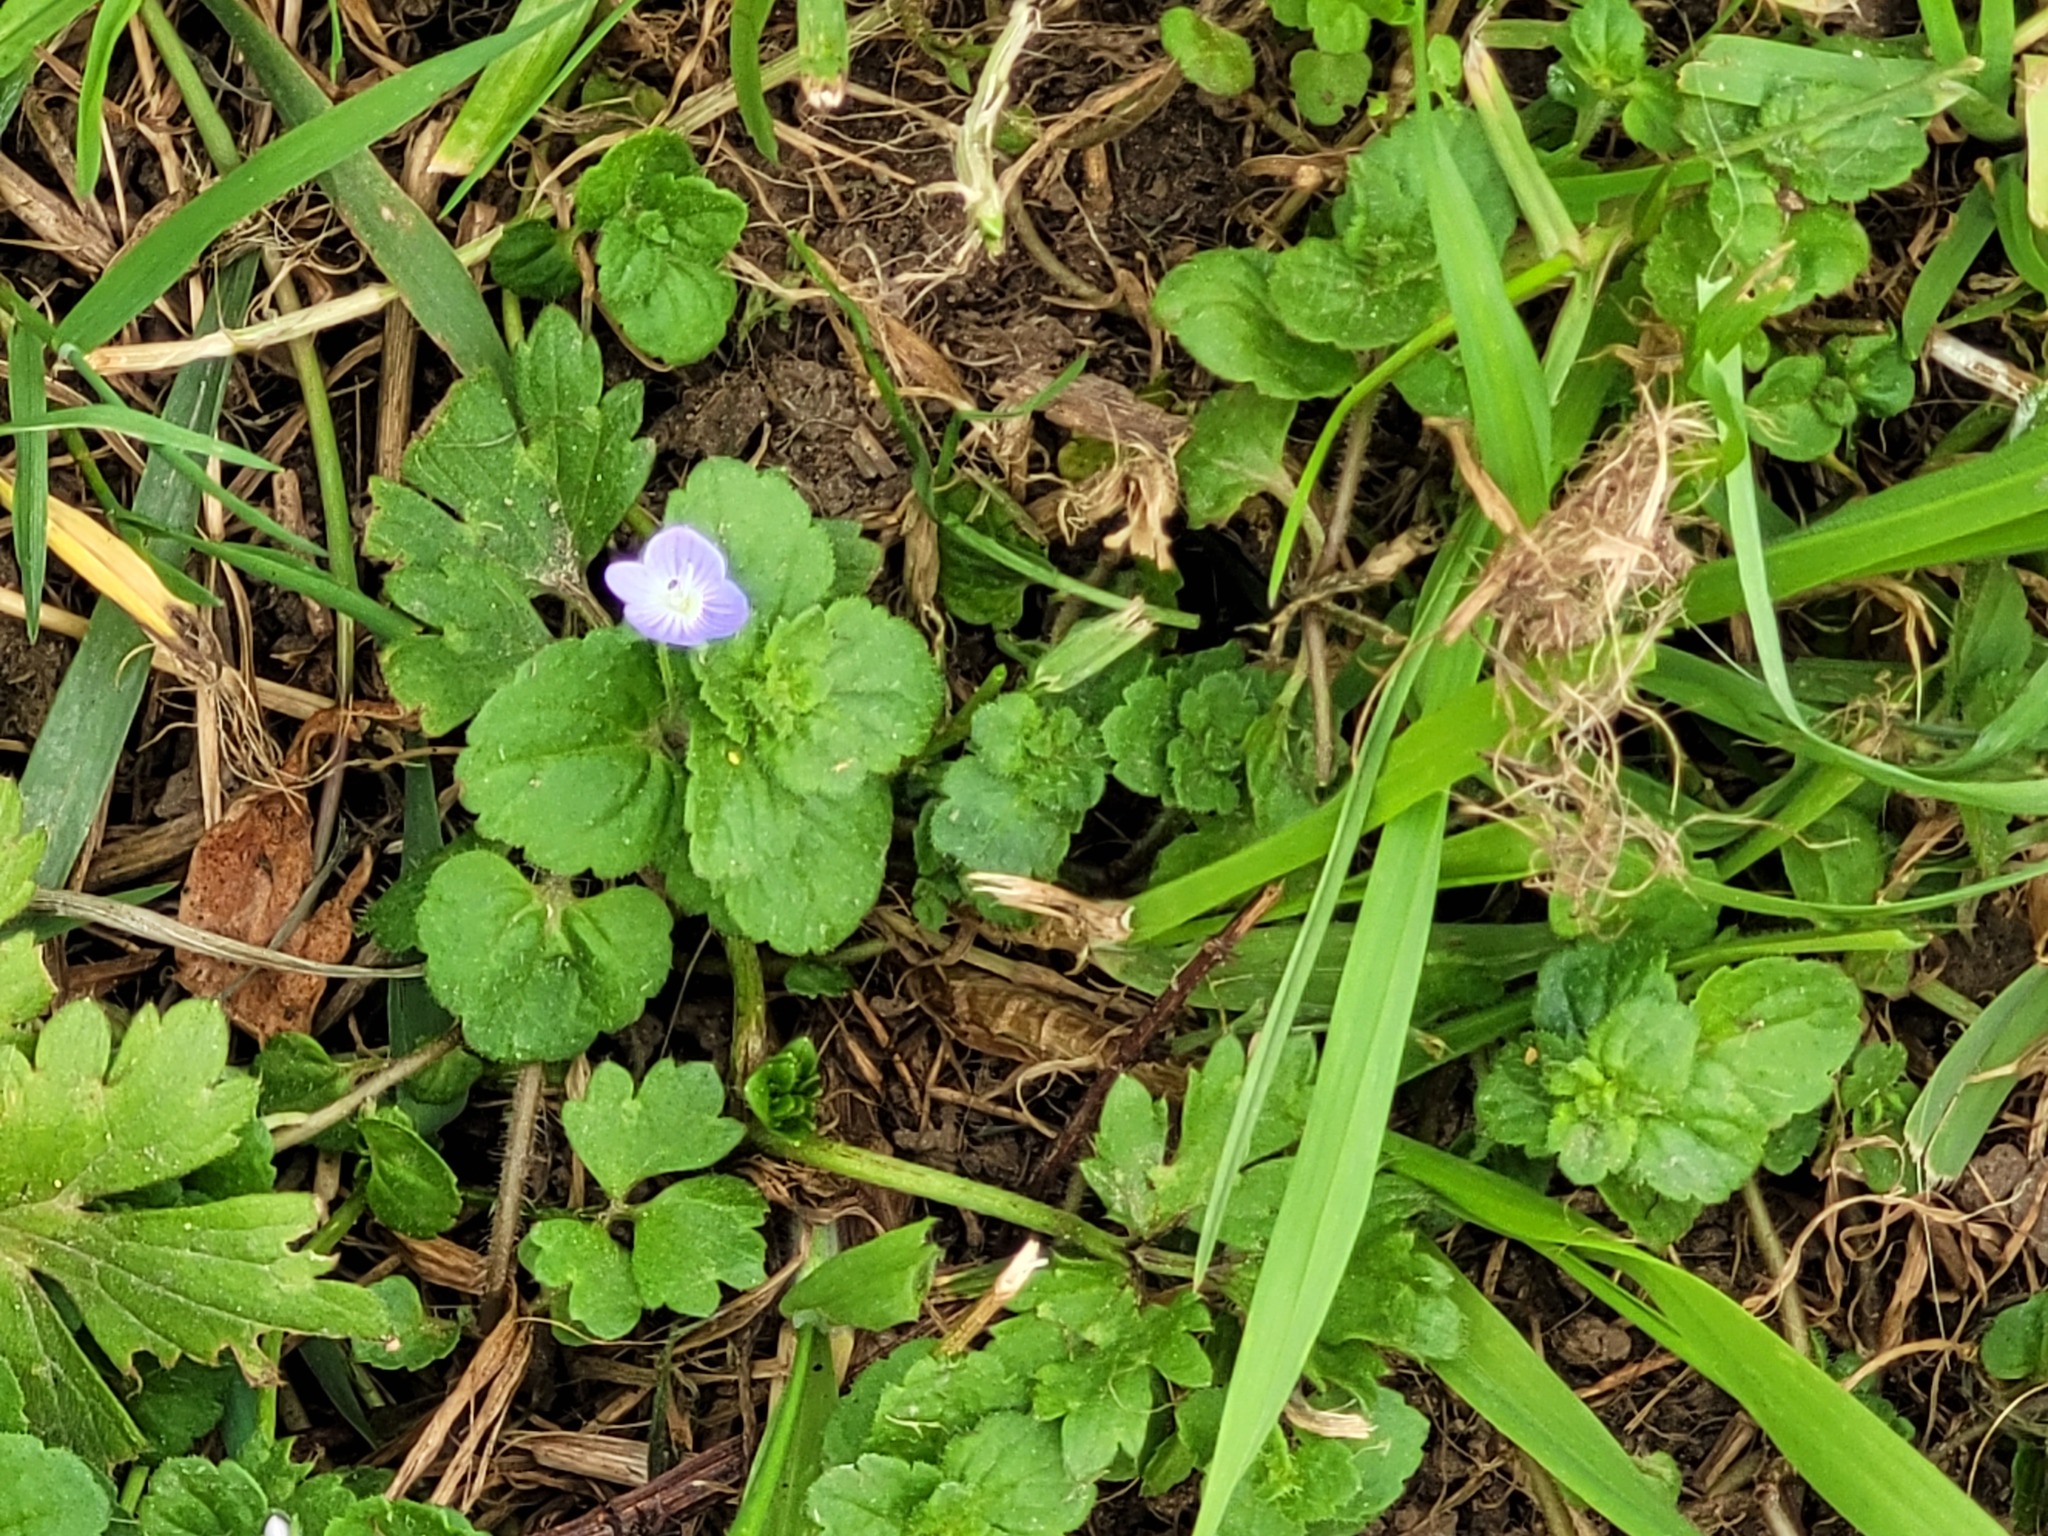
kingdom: Plantae
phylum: Tracheophyta
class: Magnoliopsida
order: Lamiales
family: Plantaginaceae
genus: Veronica
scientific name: Veronica persica
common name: Common field-speedwell
